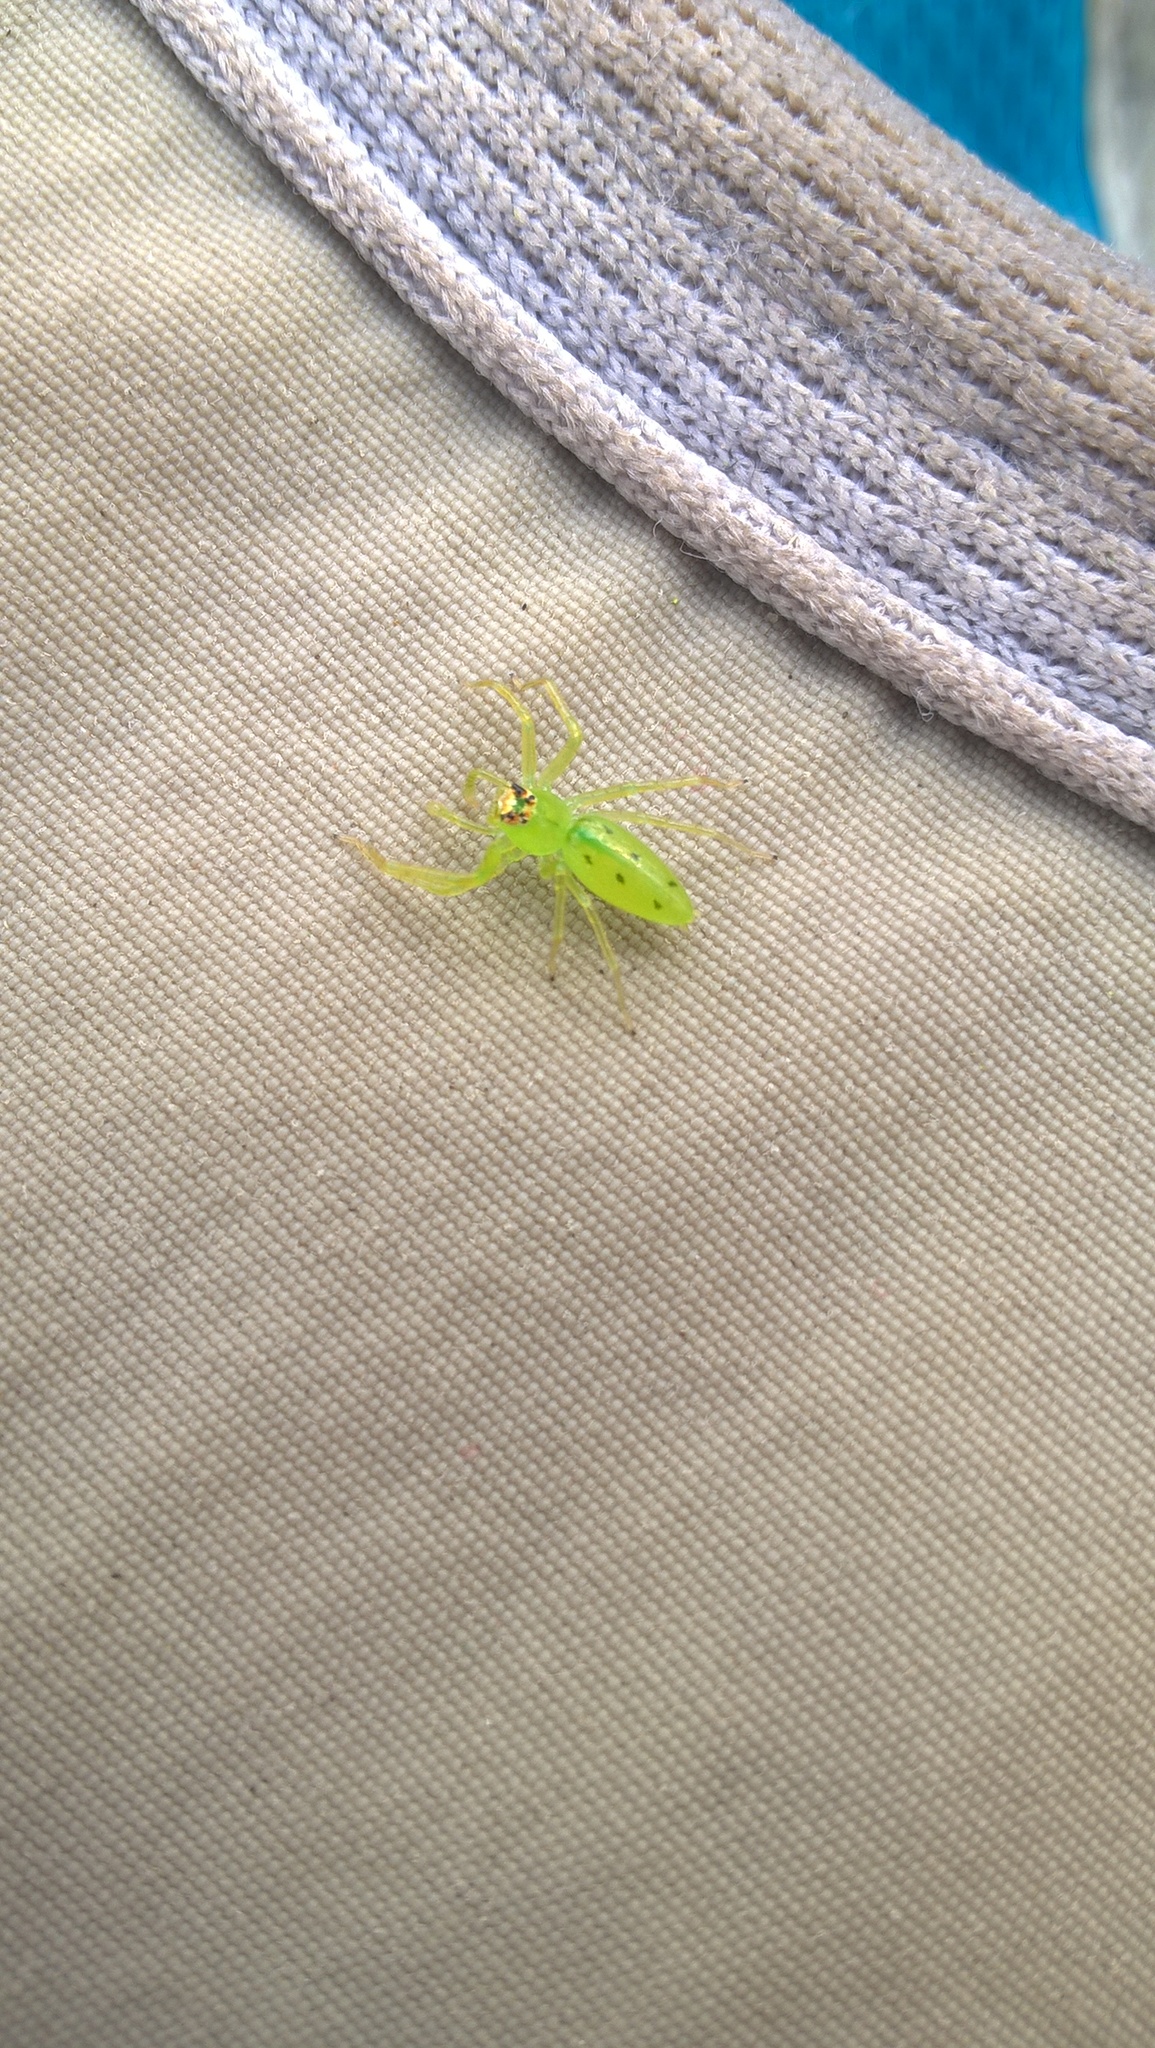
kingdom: Animalia
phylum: Arthropoda
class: Arachnida
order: Araneae
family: Salticidae
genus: Lyssomanes
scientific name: Lyssomanes viridis
